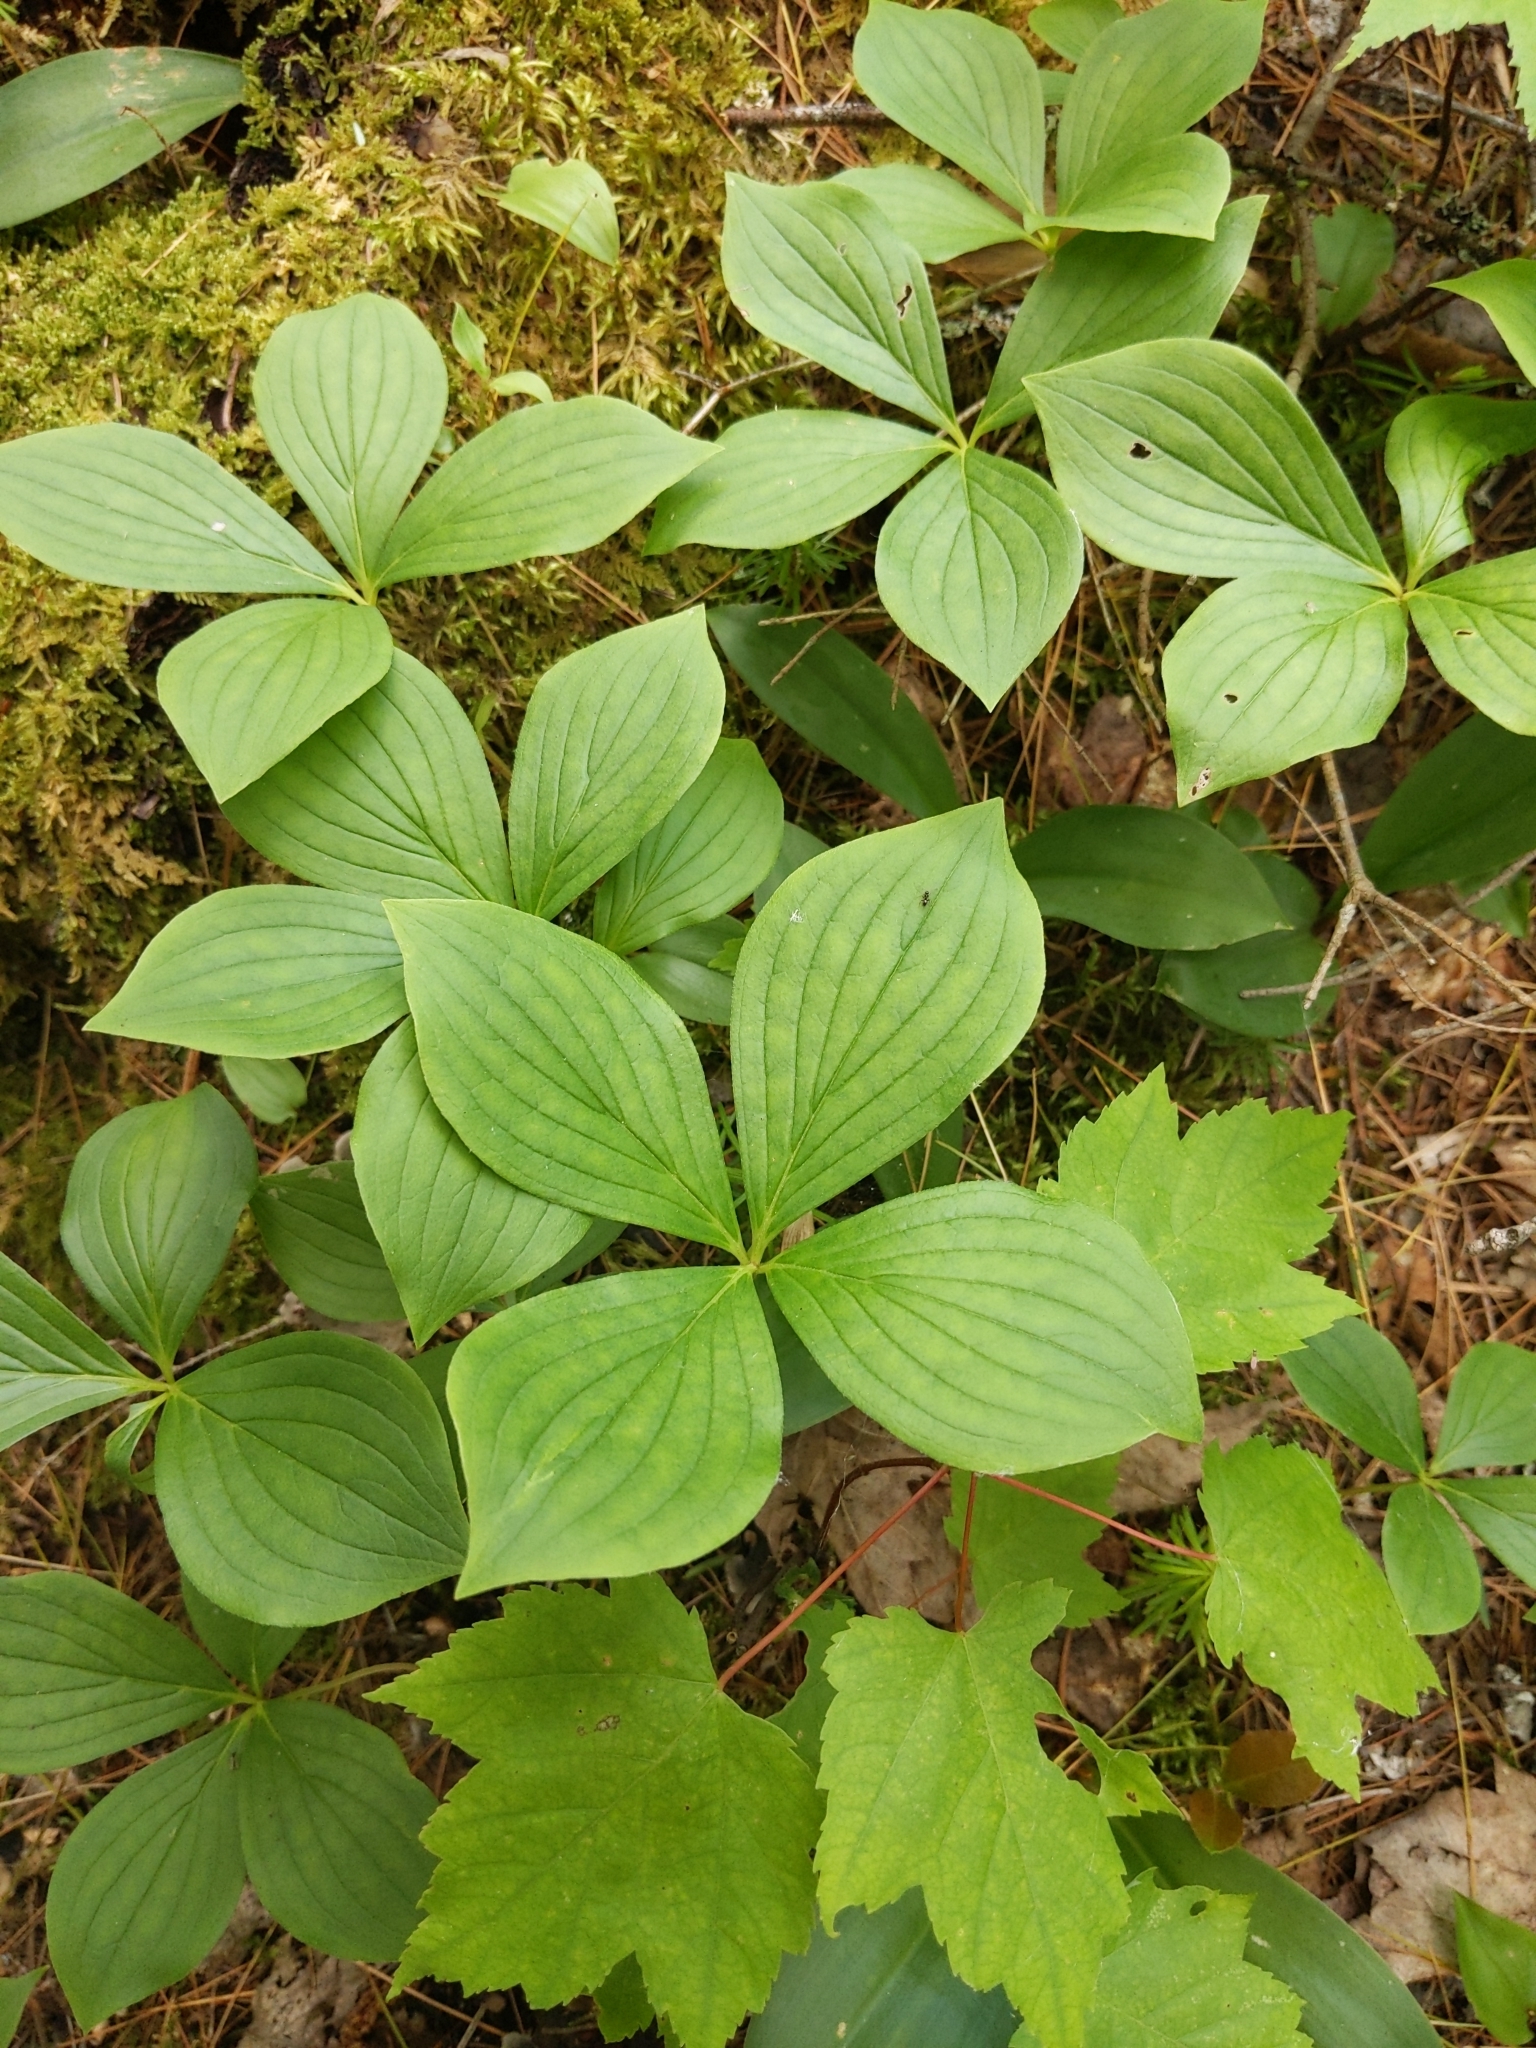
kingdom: Plantae
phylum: Tracheophyta
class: Magnoliopsida
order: Cornales
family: Cornaceae
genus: Cornus
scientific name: Cornus canadensis
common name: Creeping dogwood
